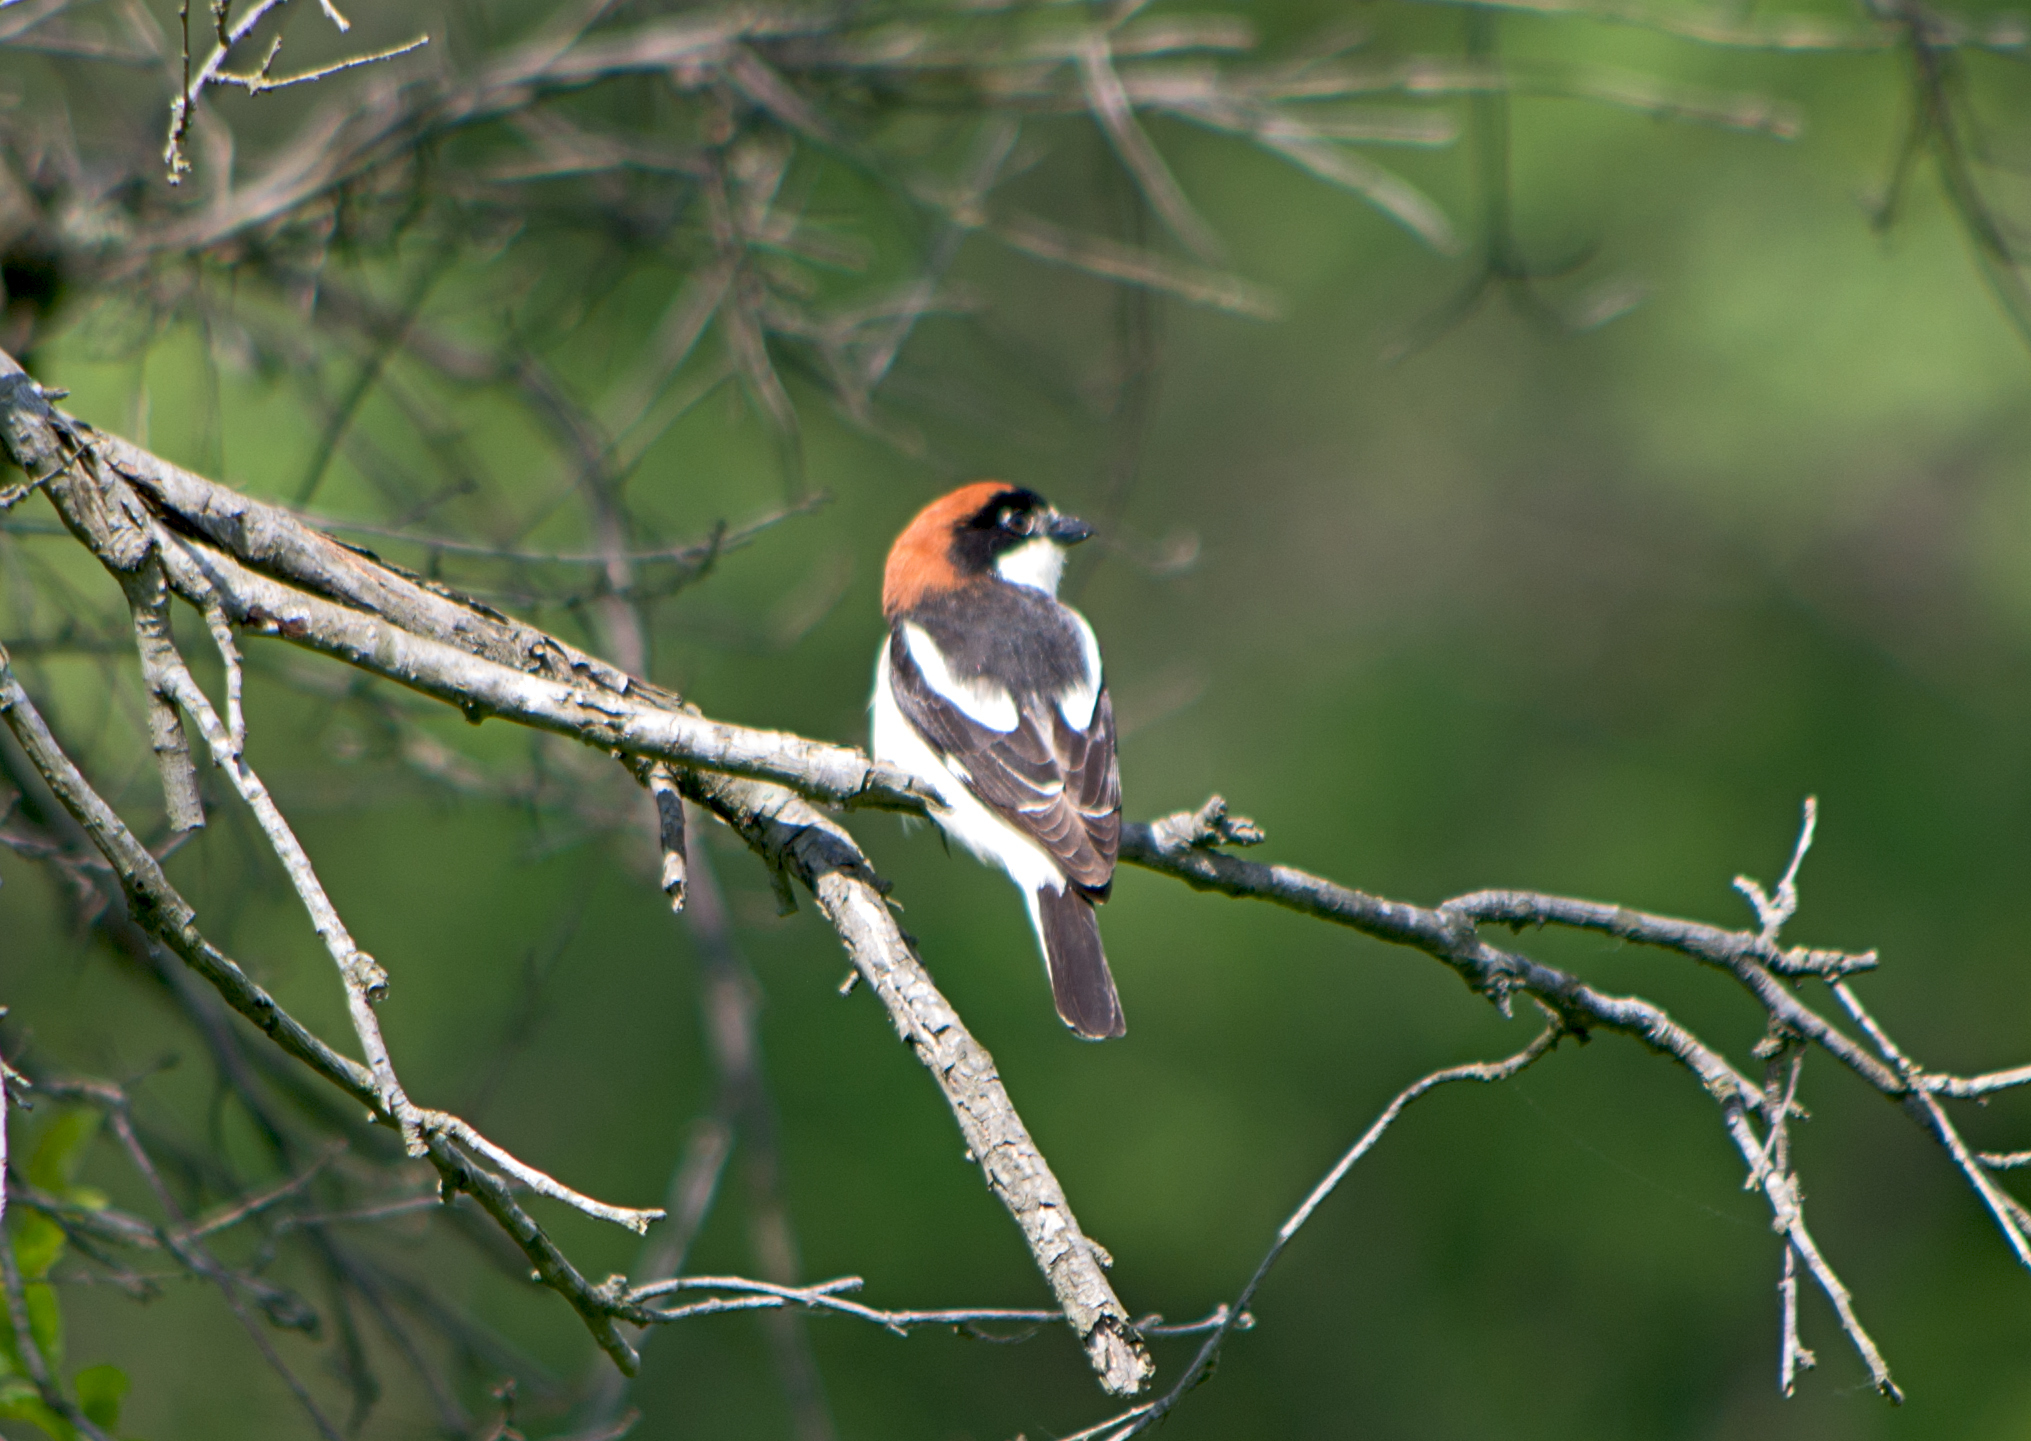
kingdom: Animalia
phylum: Chordata
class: Aves
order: Passeriformes
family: Laniidae
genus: Lanius
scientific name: Lanius senator
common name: Woodchat shrike
